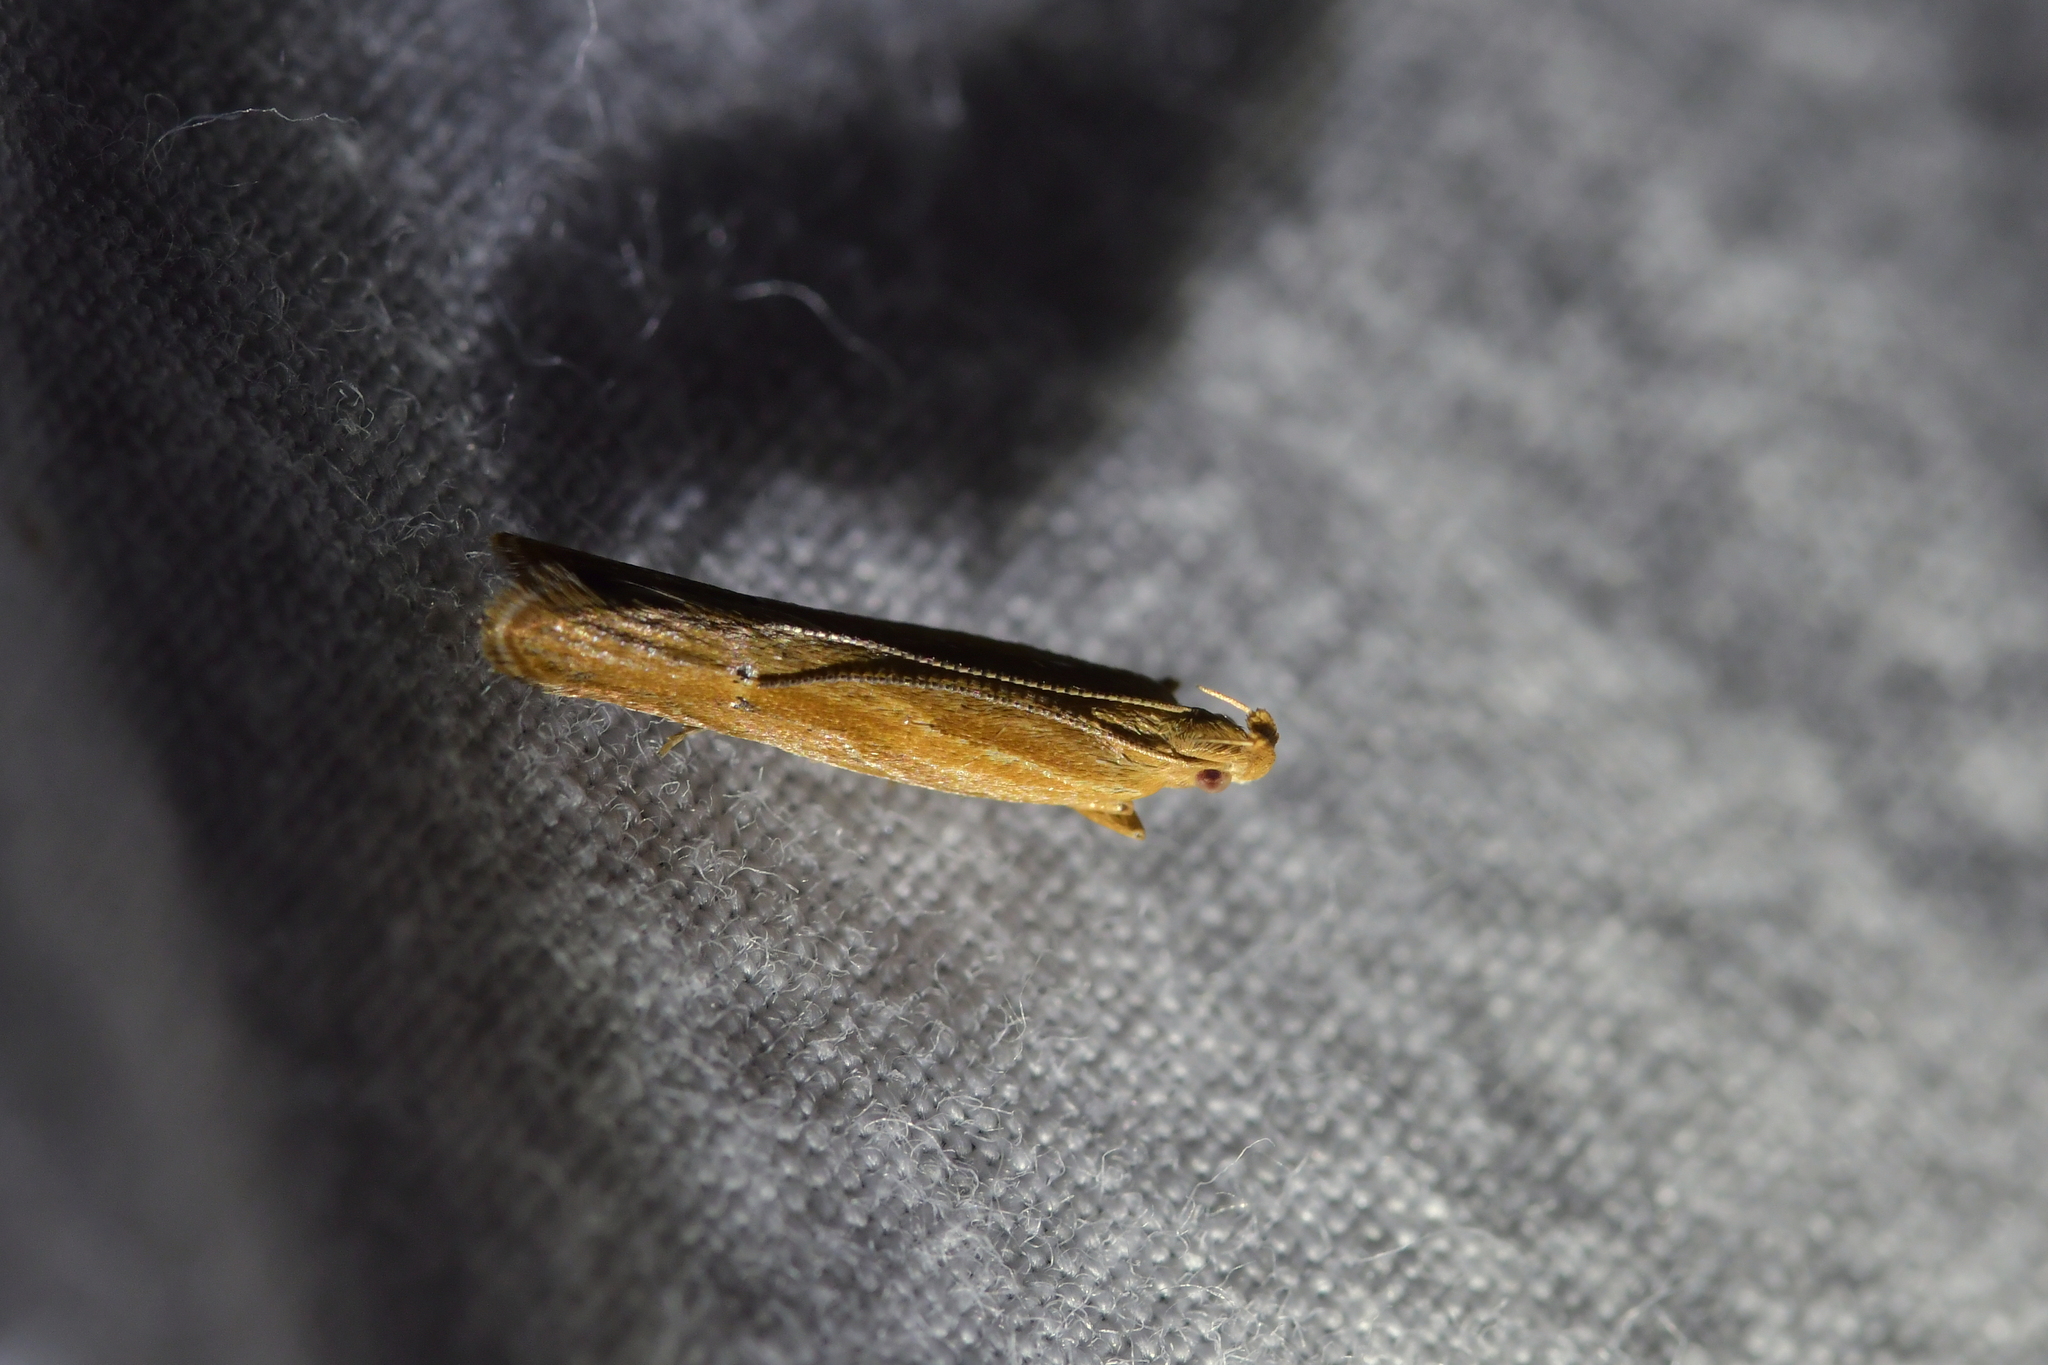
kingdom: Animalia
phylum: Arthropoda
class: Insecta
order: Lepidoptera
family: Depressariidae
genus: Eutorna
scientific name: Eutorna symmorpha
